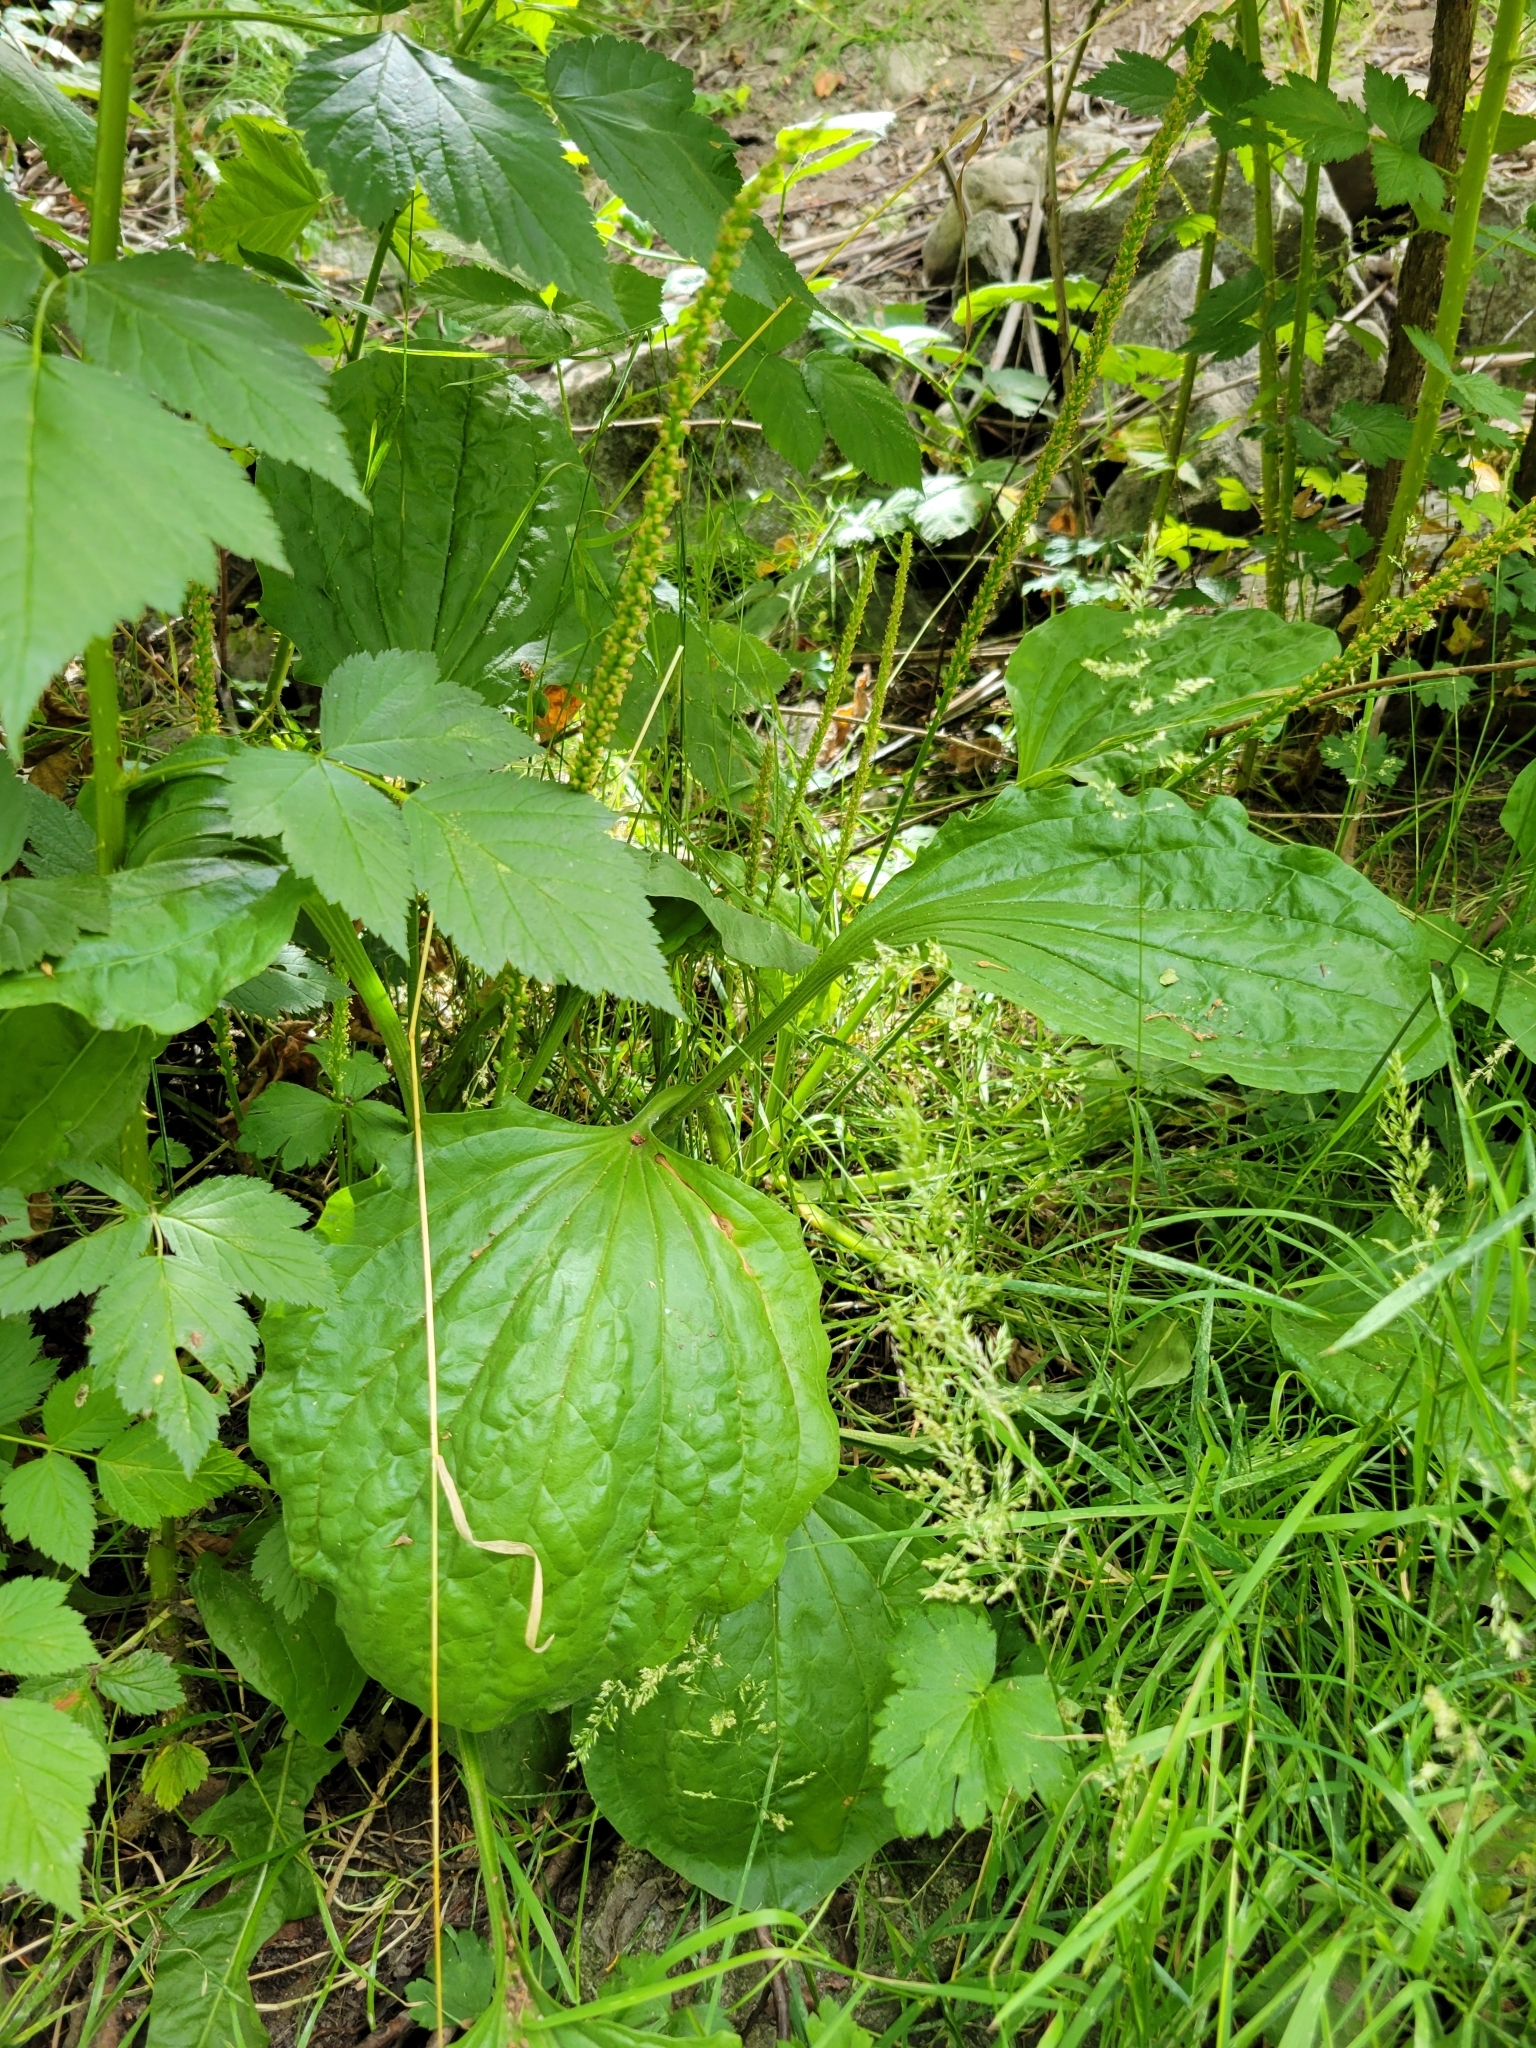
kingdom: Plantae
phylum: Tracheophyta
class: Magnoliopsida
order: Lamiales
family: Plantaginaceae
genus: Plantago
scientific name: Plantago major
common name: Common plantain
